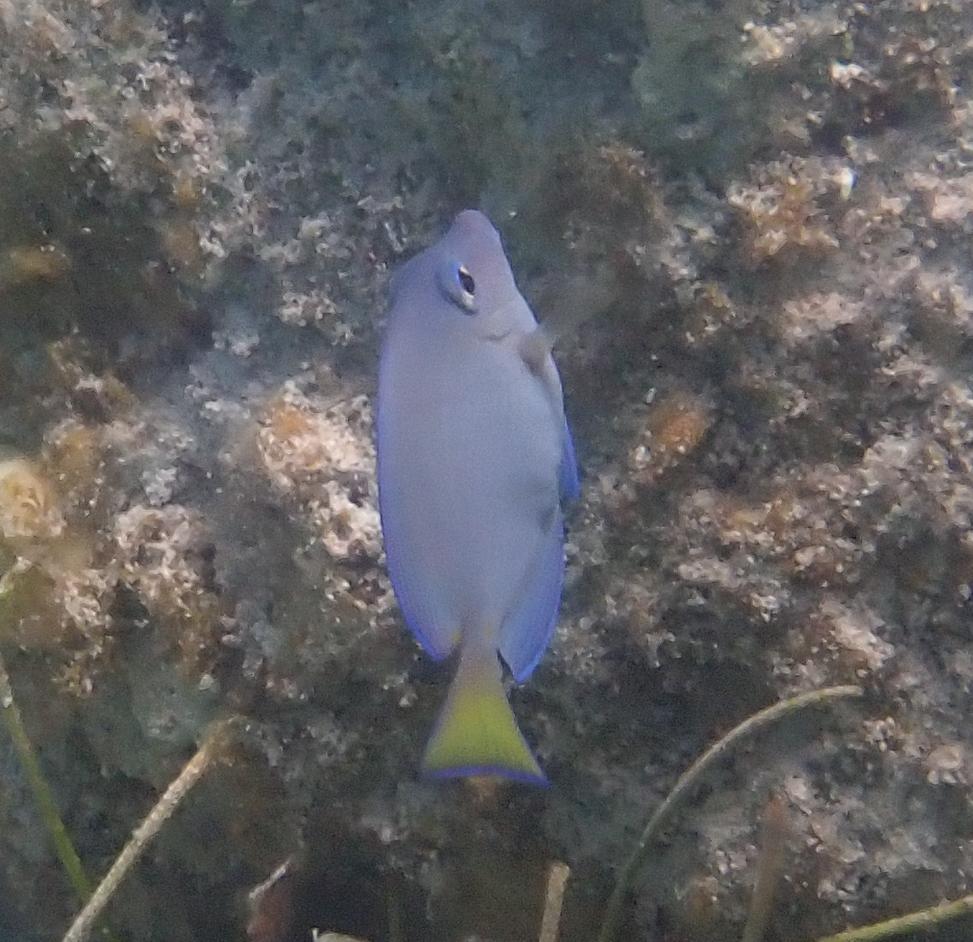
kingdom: Animalia
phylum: Chordata
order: Perciformes
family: Acanthuridae
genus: Acanthurus
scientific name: Acanthurus coeruleus
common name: Blue tang
